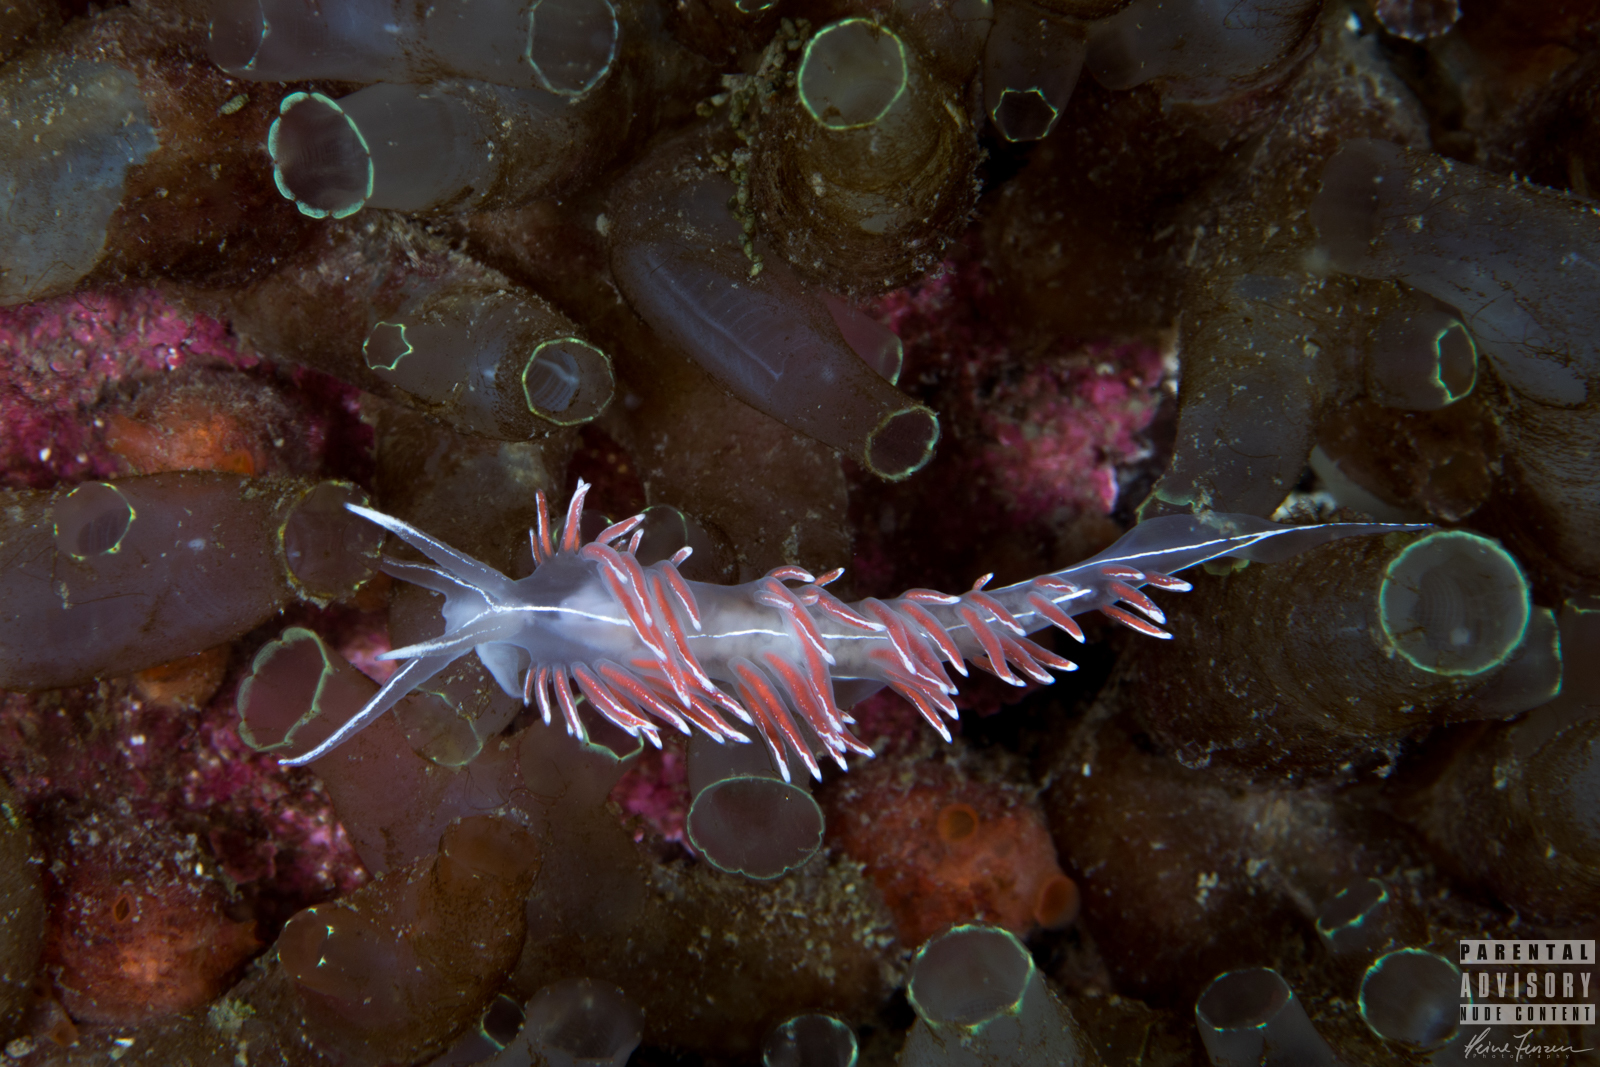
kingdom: Animalia
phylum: Mollusca
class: Gastropoda
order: Nudibranchia
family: Coryphellidae
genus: Coryphella
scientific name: Coryphella lineata
